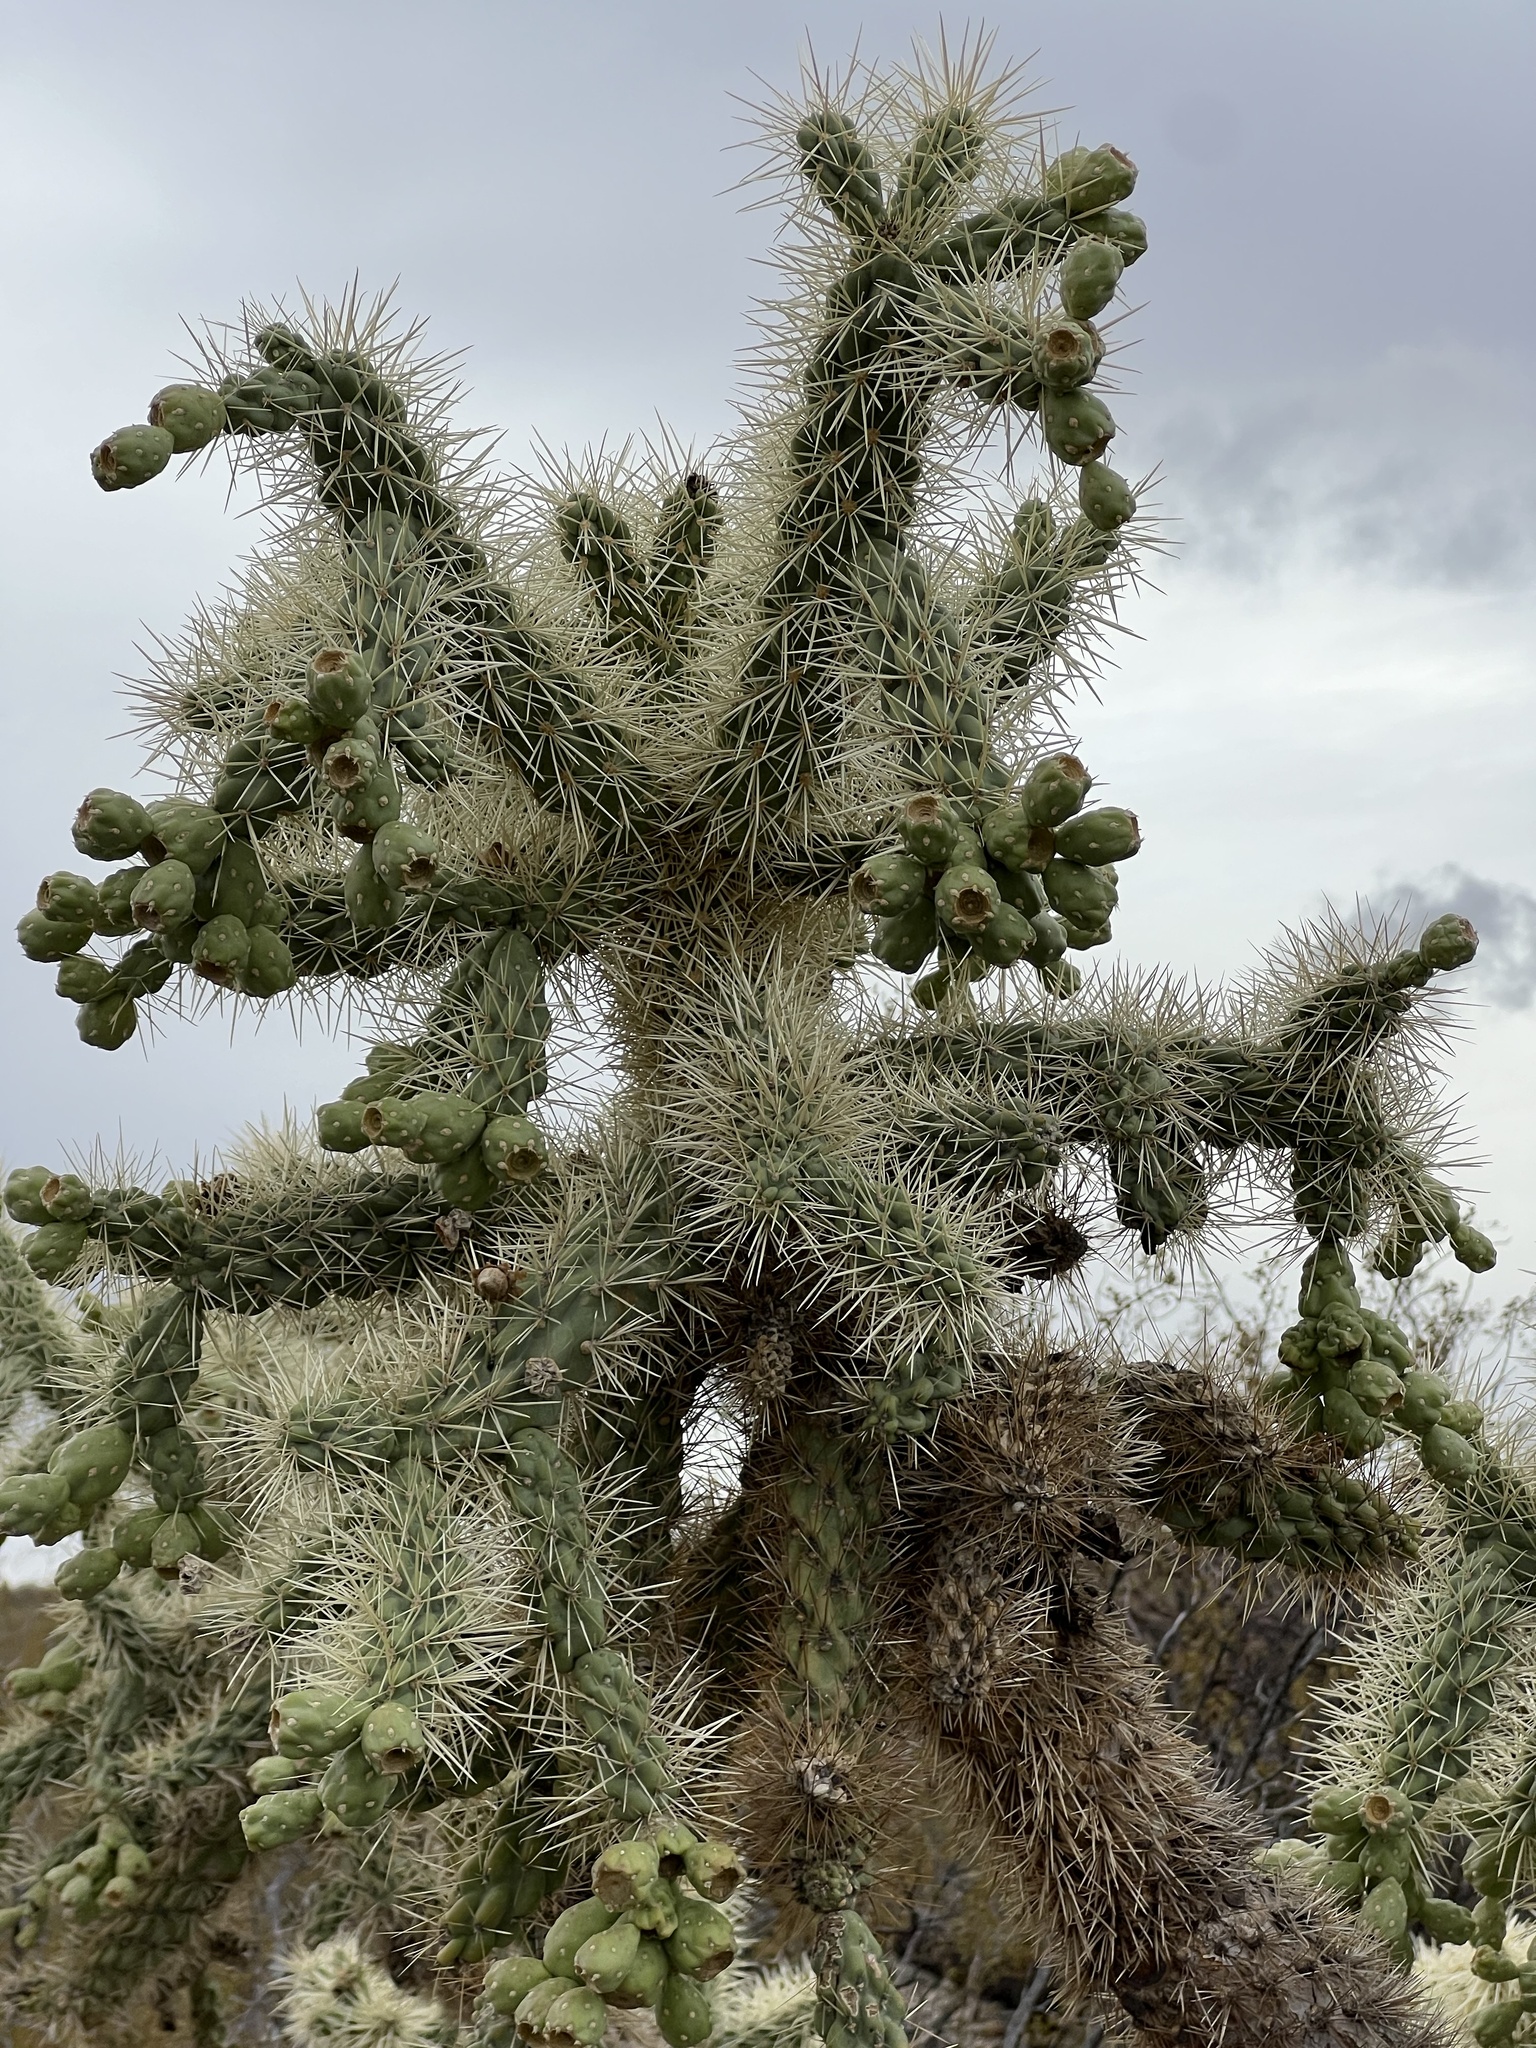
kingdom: Plantae
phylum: Tracheophyta
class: Magnoliopsida
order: Caryophyllales
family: Cactaceae
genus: Cylindropuntia
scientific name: Cylindropuntia fulgida
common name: Jumping cholla
